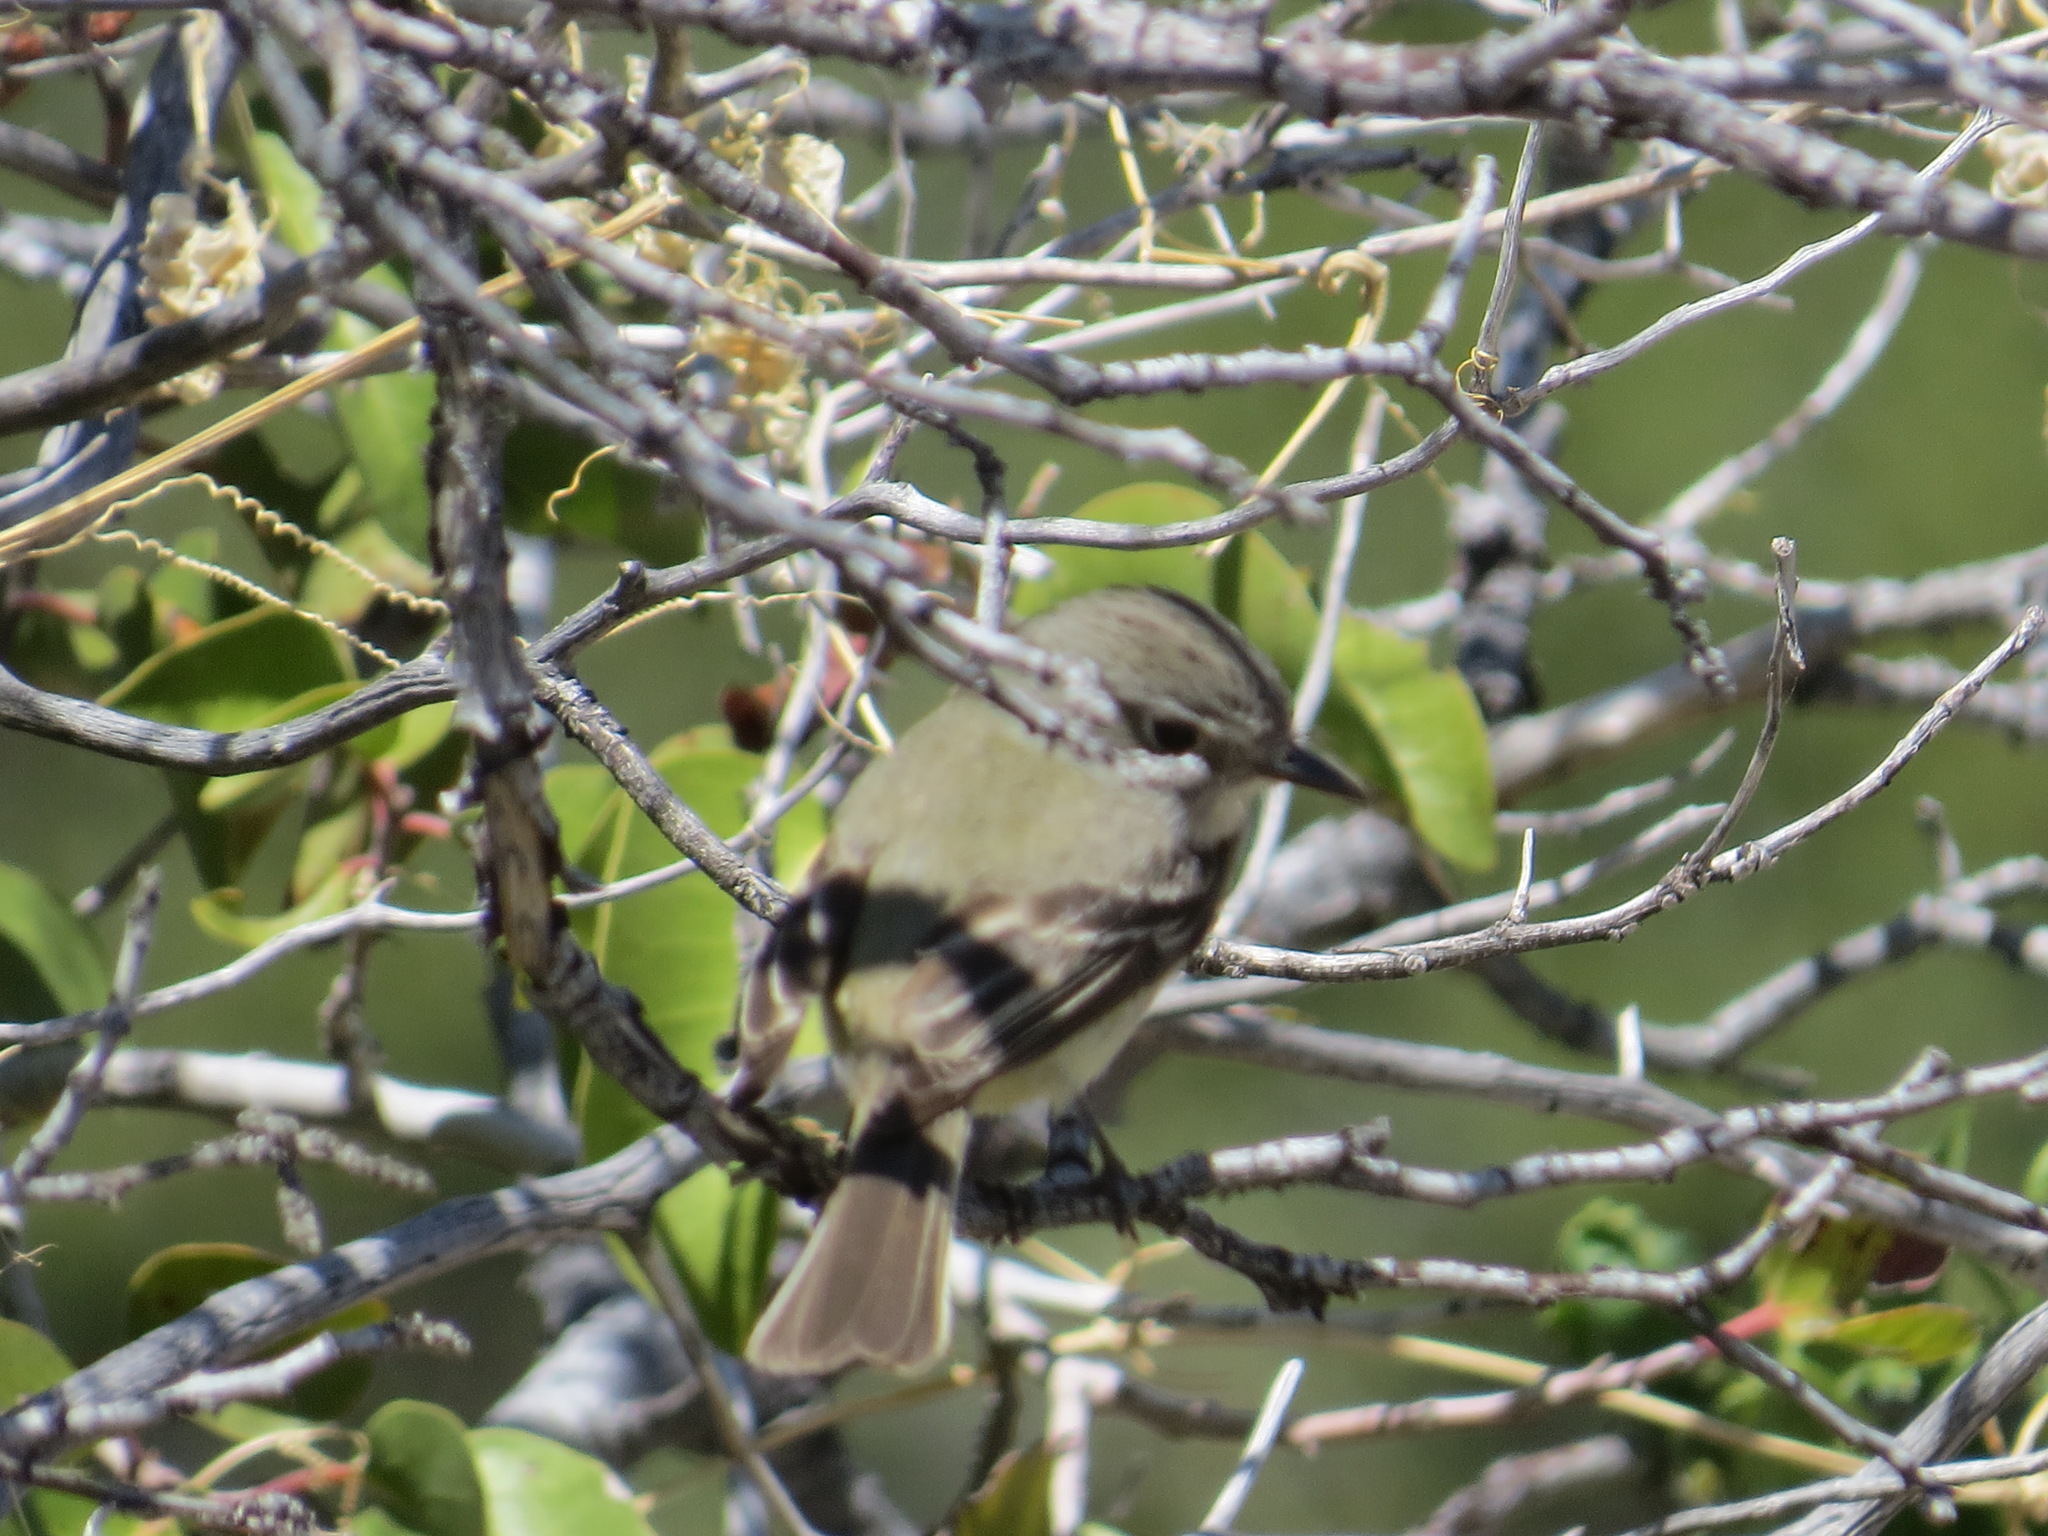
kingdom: Animalia
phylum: Chordata
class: Aves
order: Passeriformes
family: Tyrannidae
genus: Empidonax
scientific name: Empidonax wrightii
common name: Gray flycatcher
